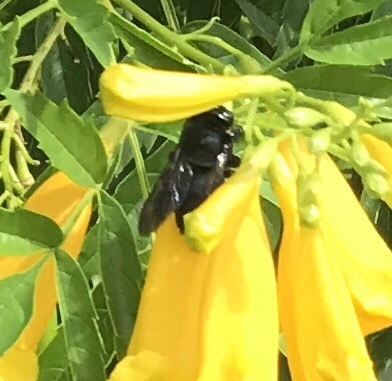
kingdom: Animalia
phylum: Arthropoda
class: Insecta
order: Hymenoptera
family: Apidae
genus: Xylocopa
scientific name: Xylocopa micans
